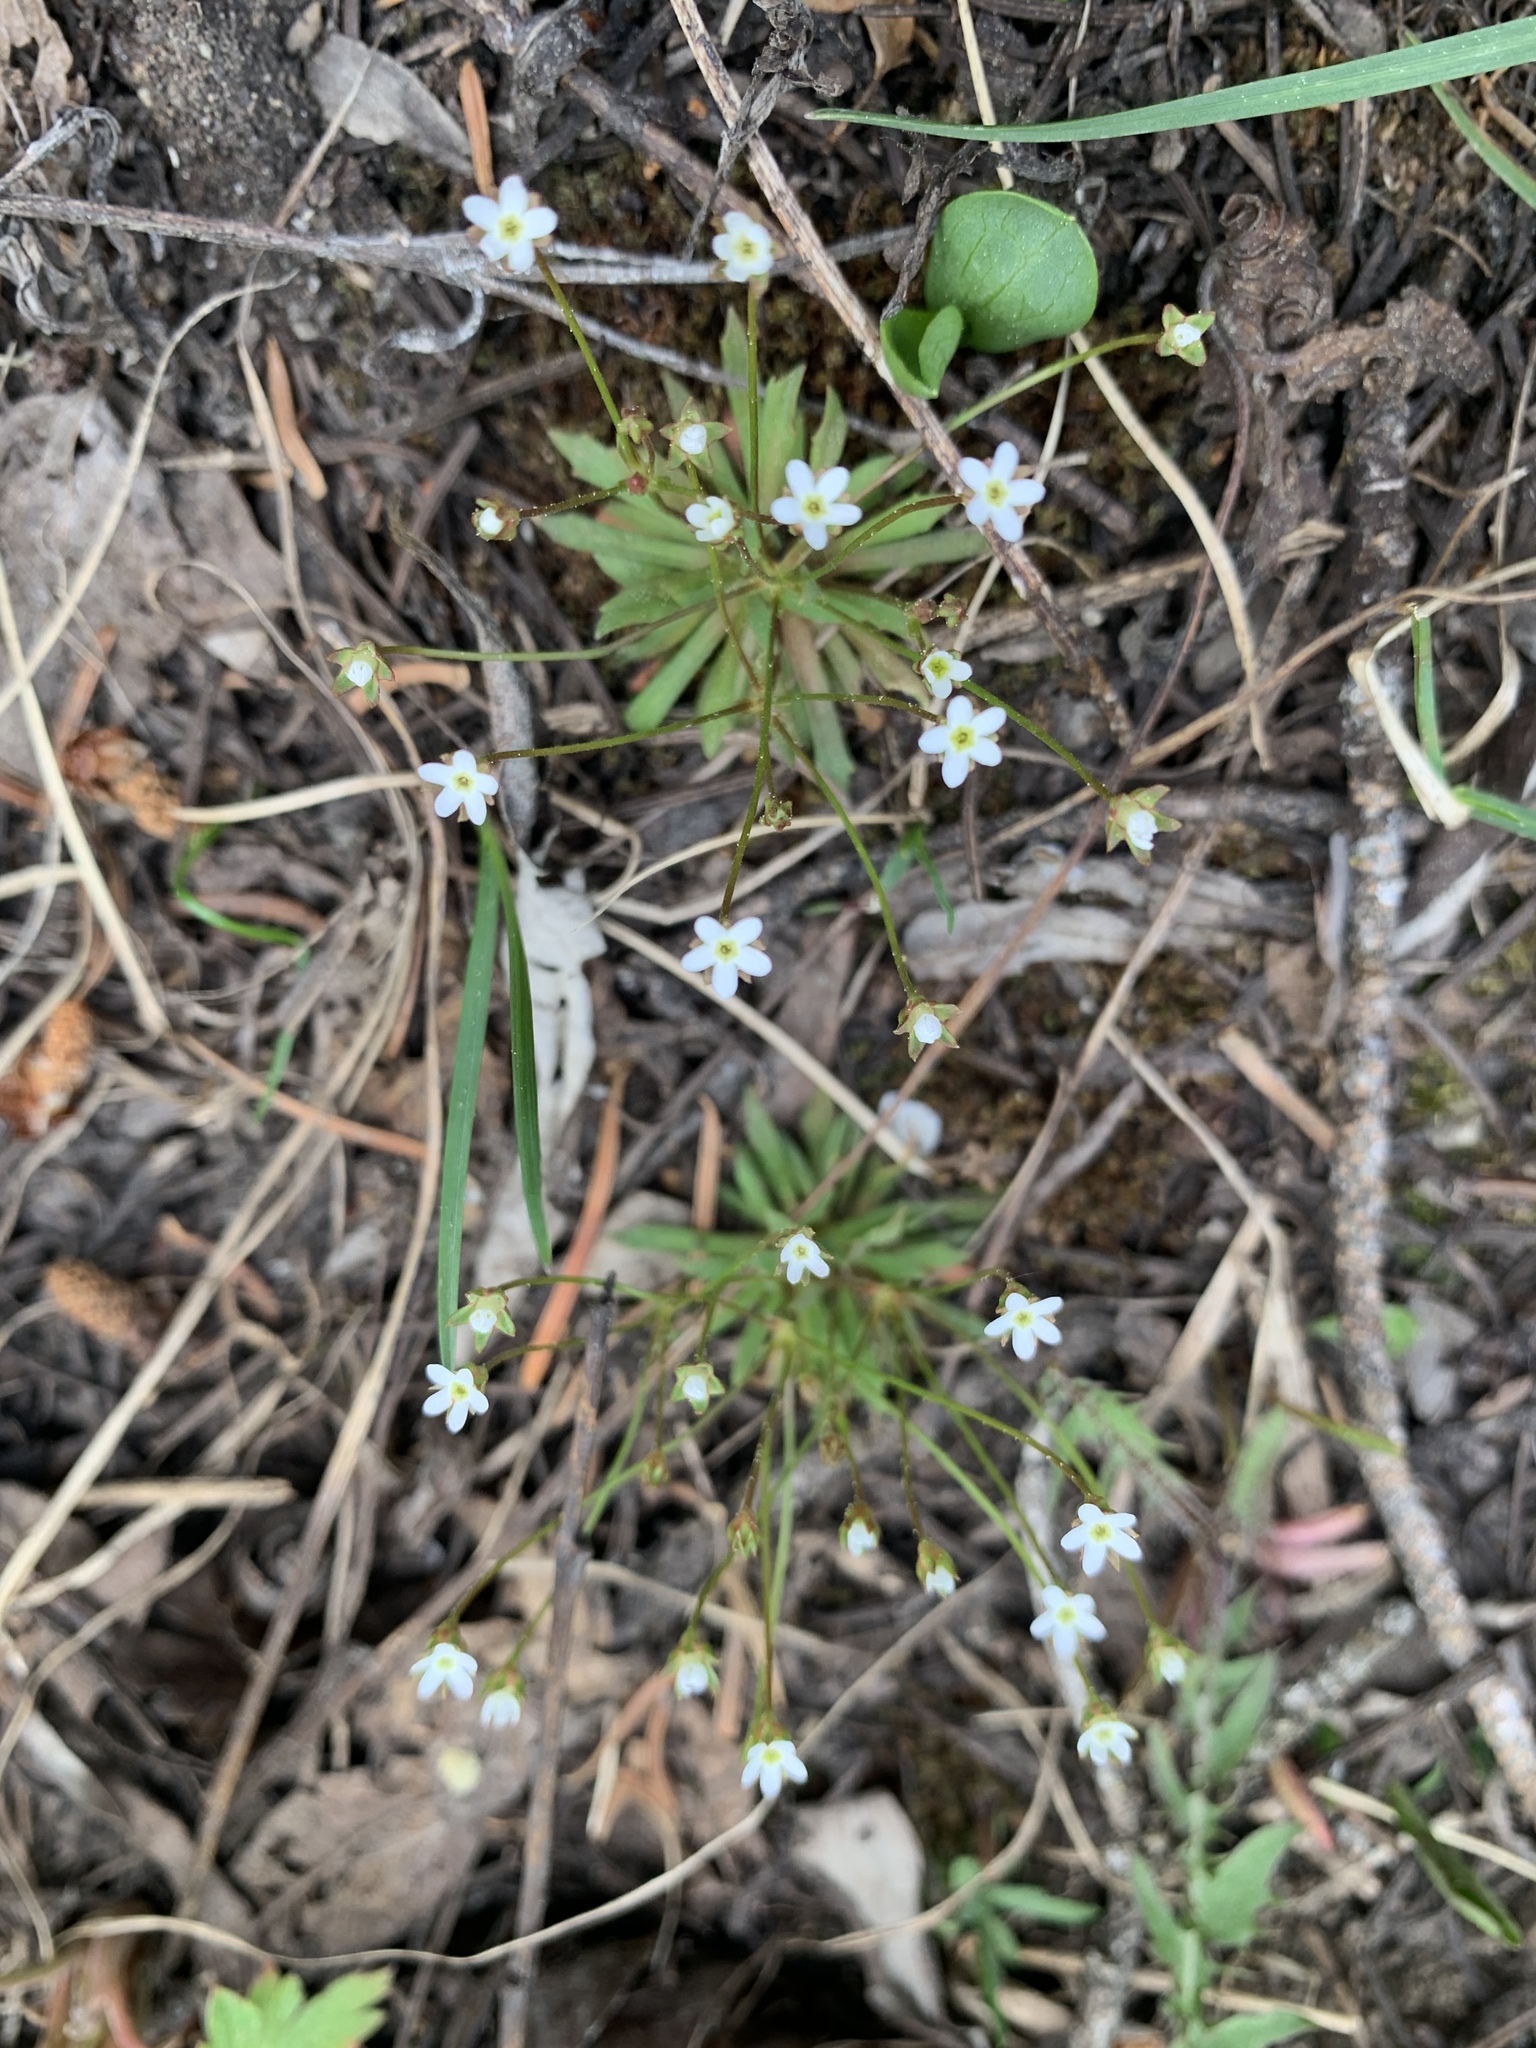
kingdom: Plantae
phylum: Tracheophyta
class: Magnoliopsida
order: Ericales
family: Primulaceae
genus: Androsace
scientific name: Androsace septentrionalis
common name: Hairy northern fairy-candelabra
